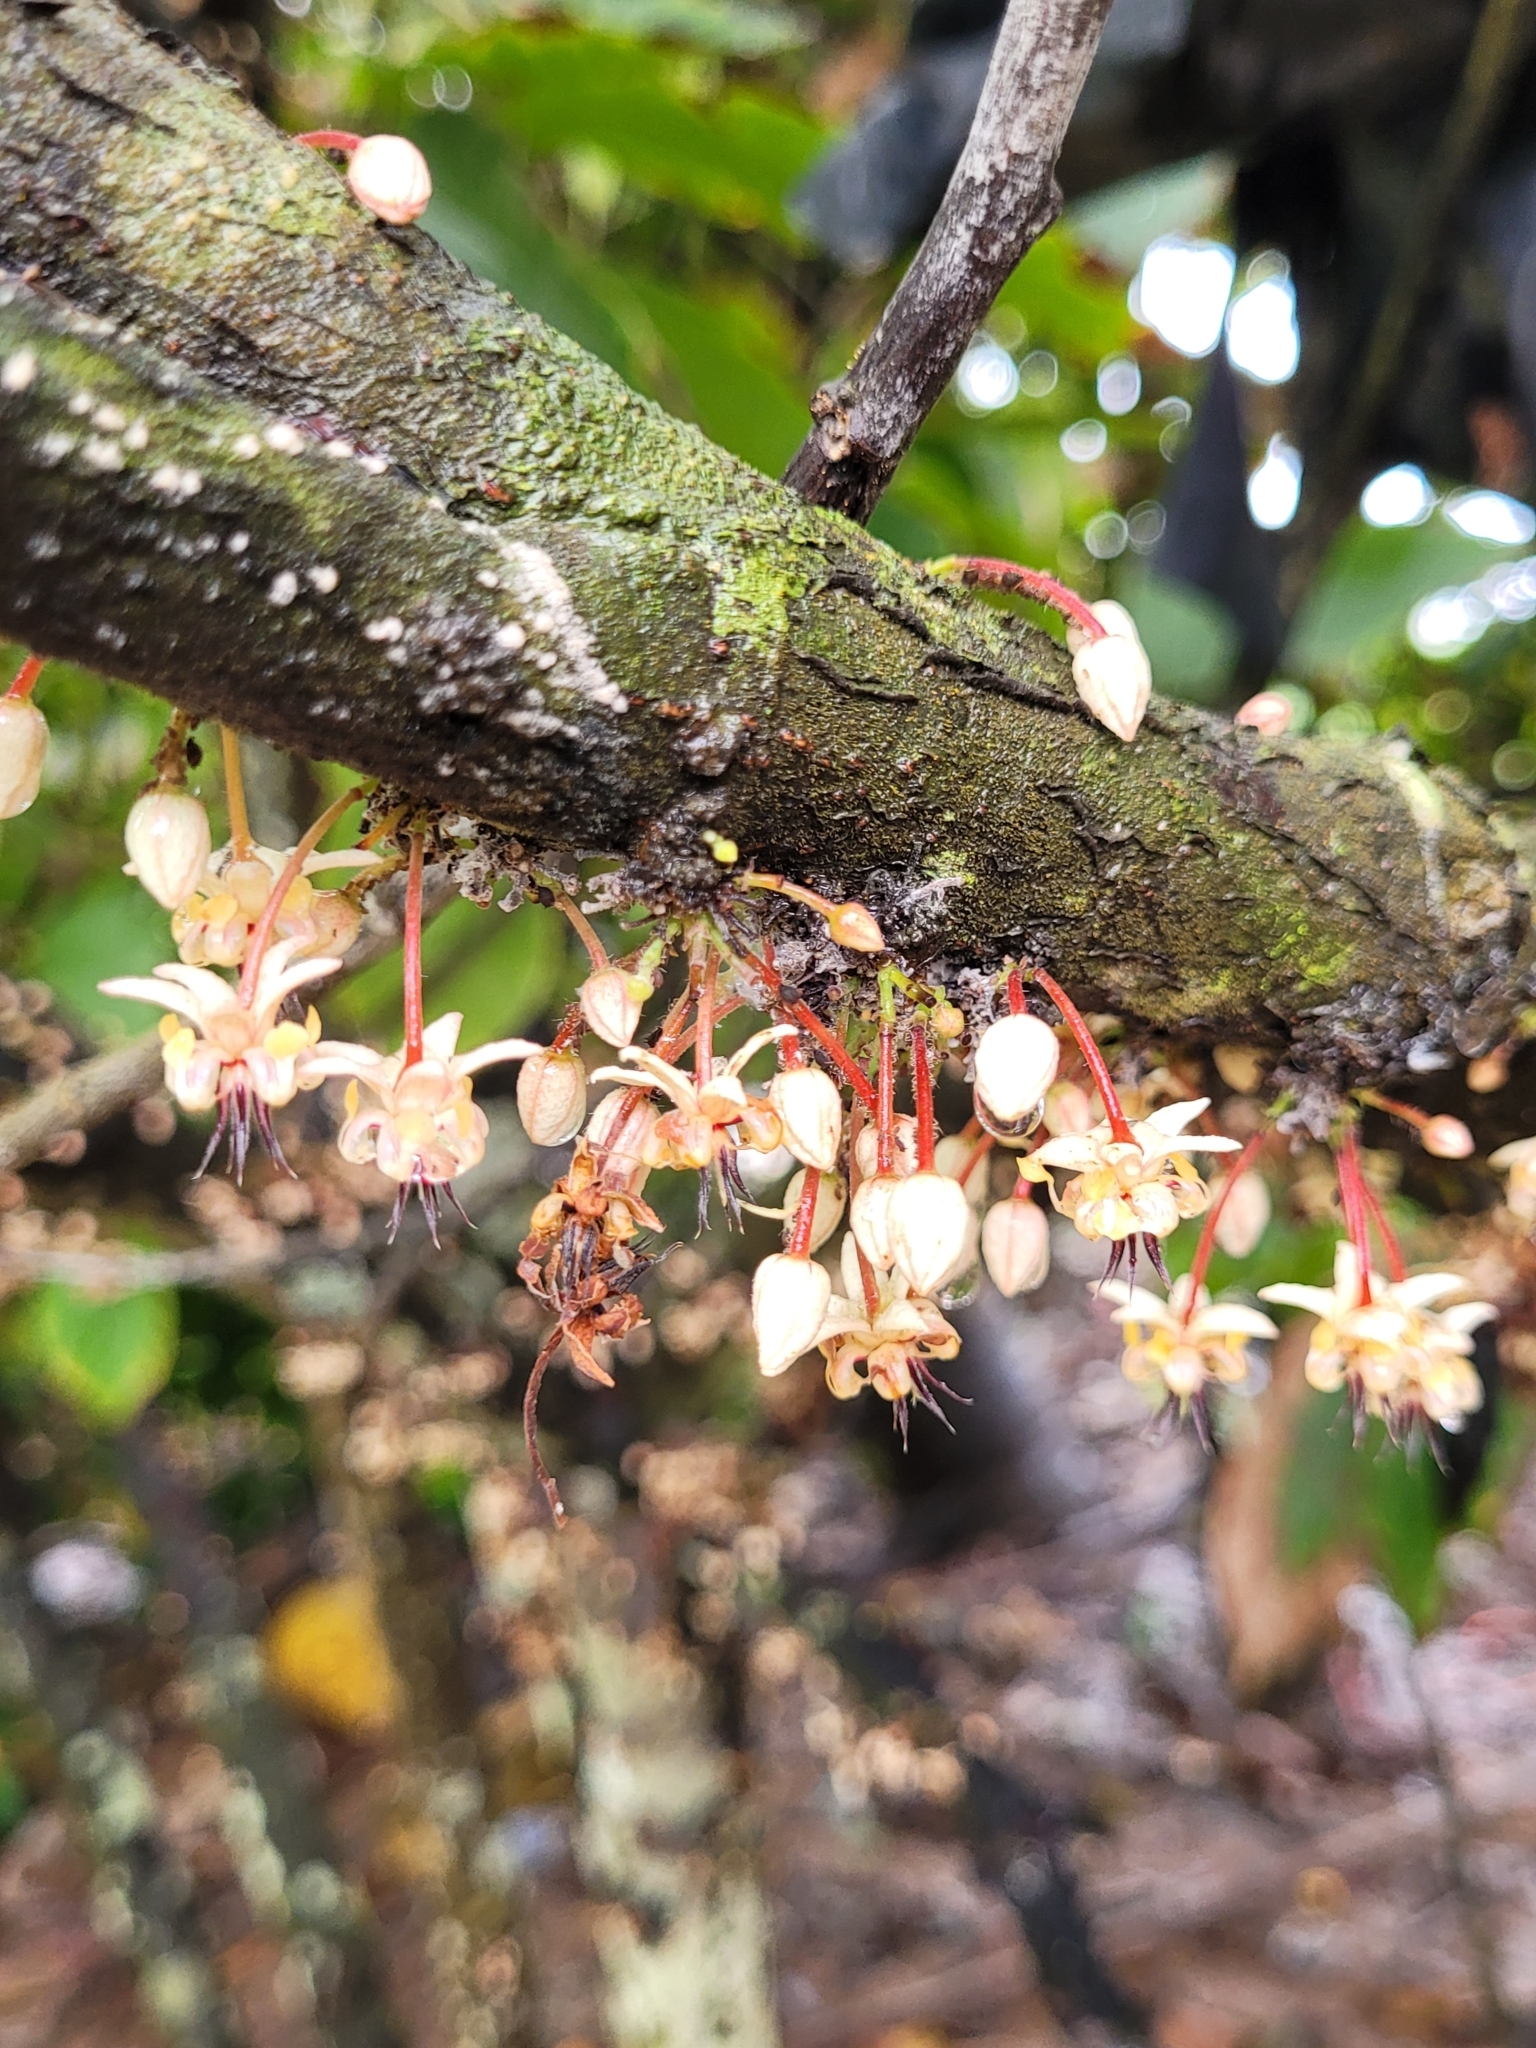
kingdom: Plantae
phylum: Tracheophyta
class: Magnoliopsida
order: Malvales
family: Malvaceae
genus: Theobroma
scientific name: Theobroma cacao
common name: Cocoa
